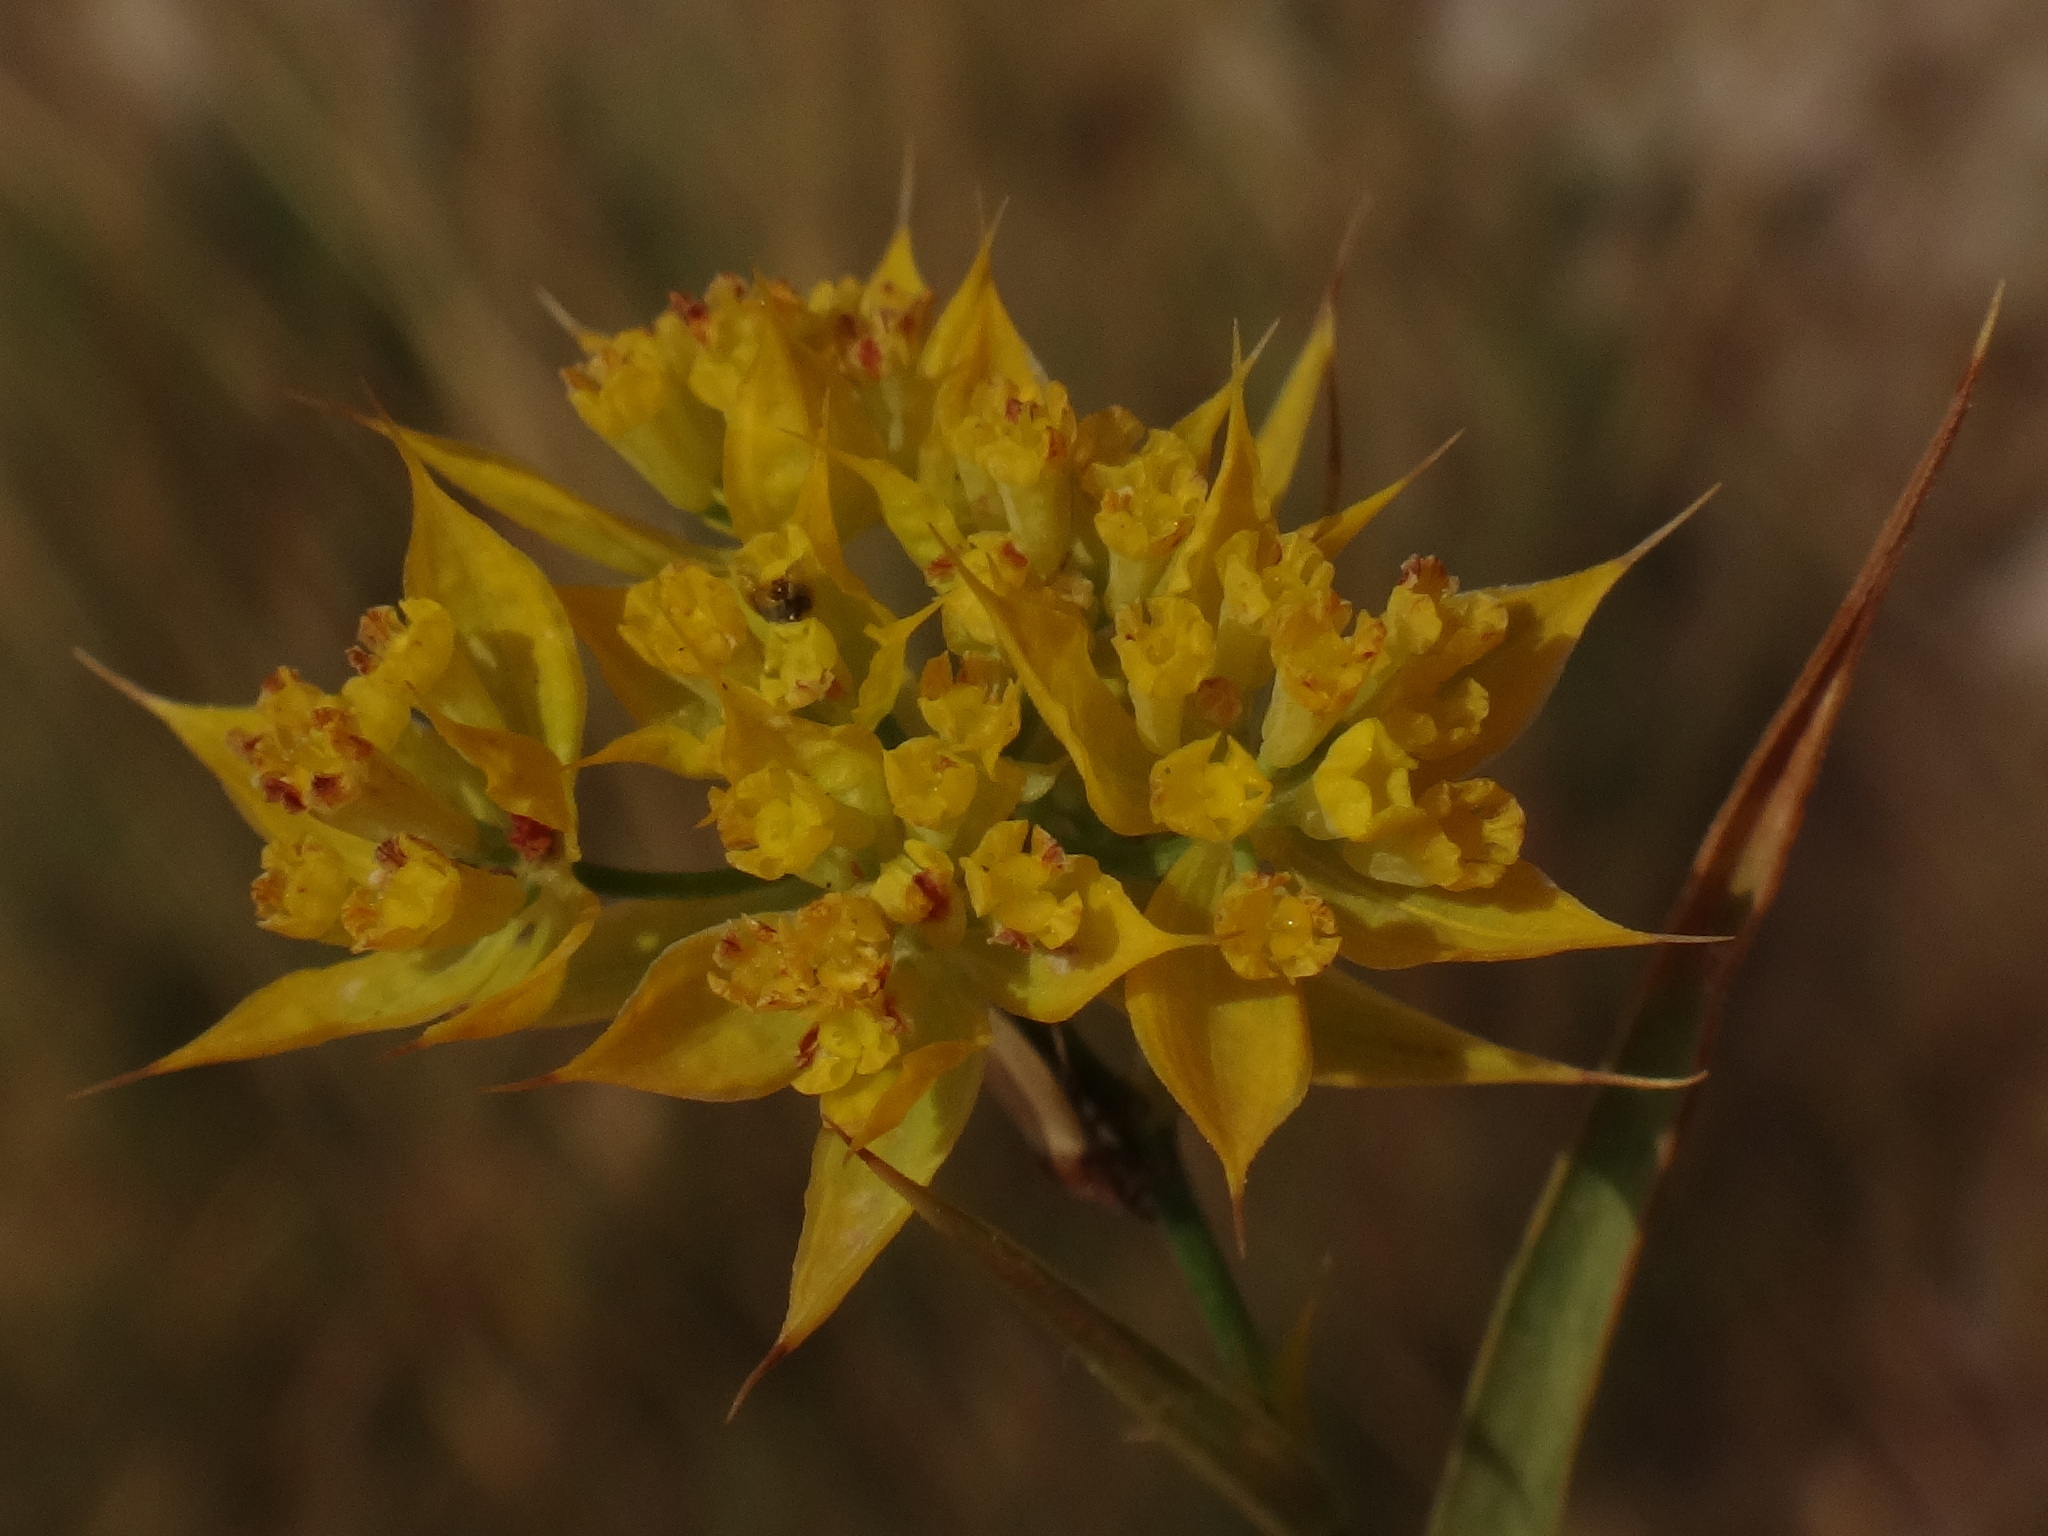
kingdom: Plantae
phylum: Tracheophyta
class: Magnoliopsida
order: Apiales
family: Apiaceae
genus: Bupleurum
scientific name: Bupleurum veronense
